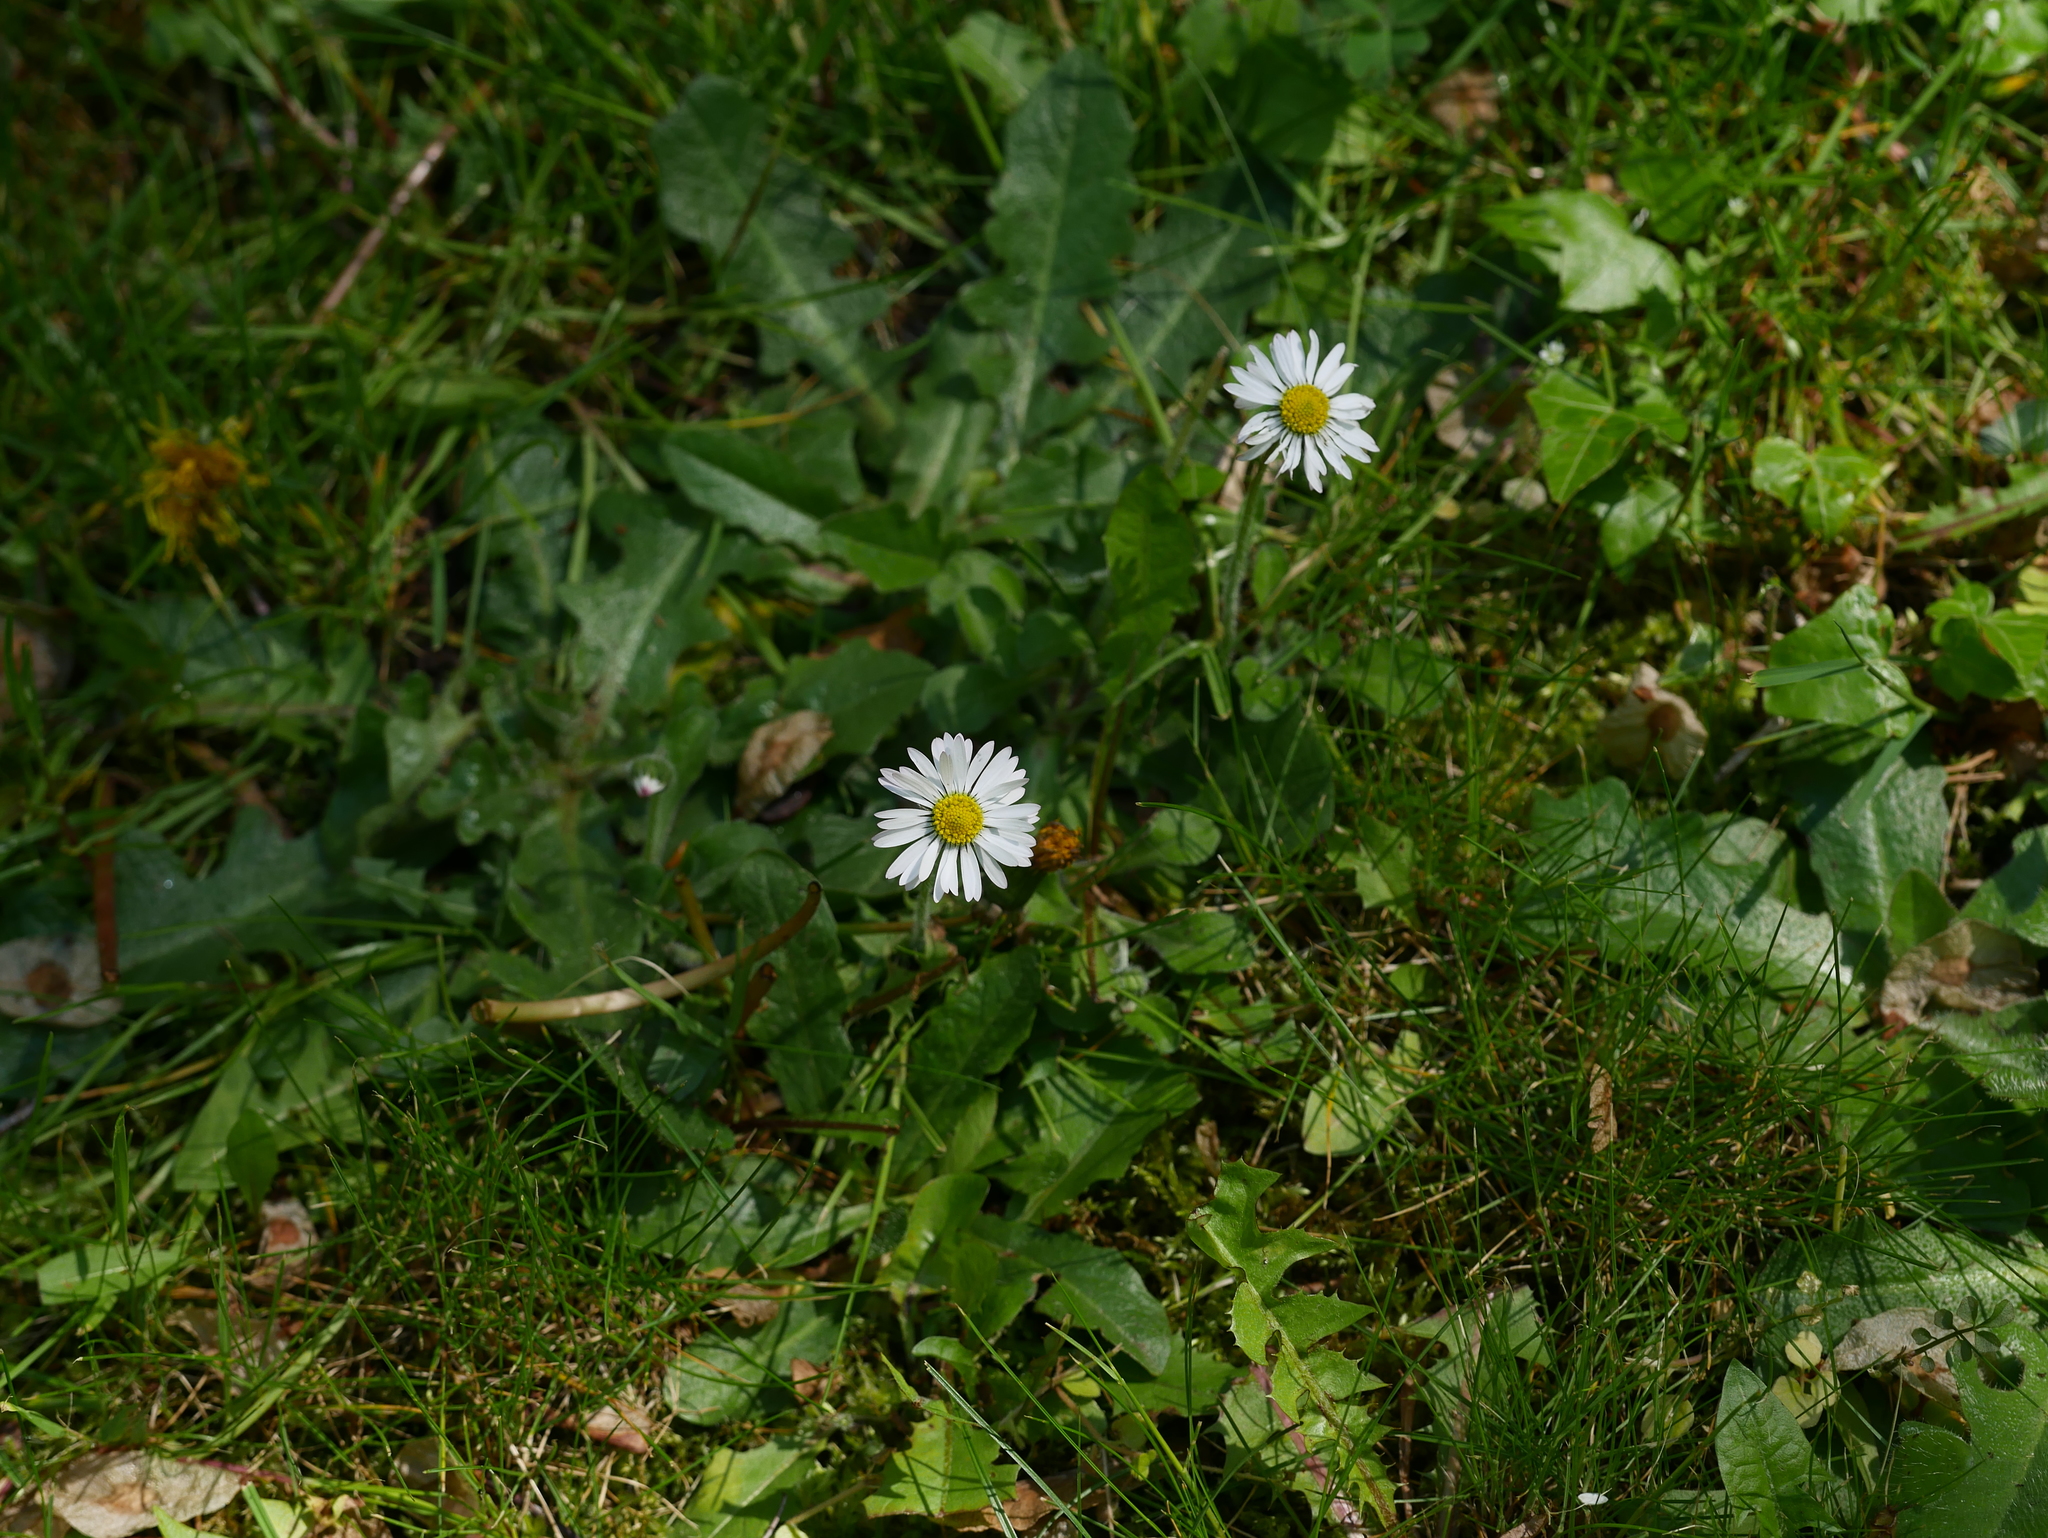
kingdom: Plantae
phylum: Tracheophyta
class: Magnoliopsida
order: Asterales
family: Asteraceae
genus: Bellis
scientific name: Bellis perennis
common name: Lawndaisy
